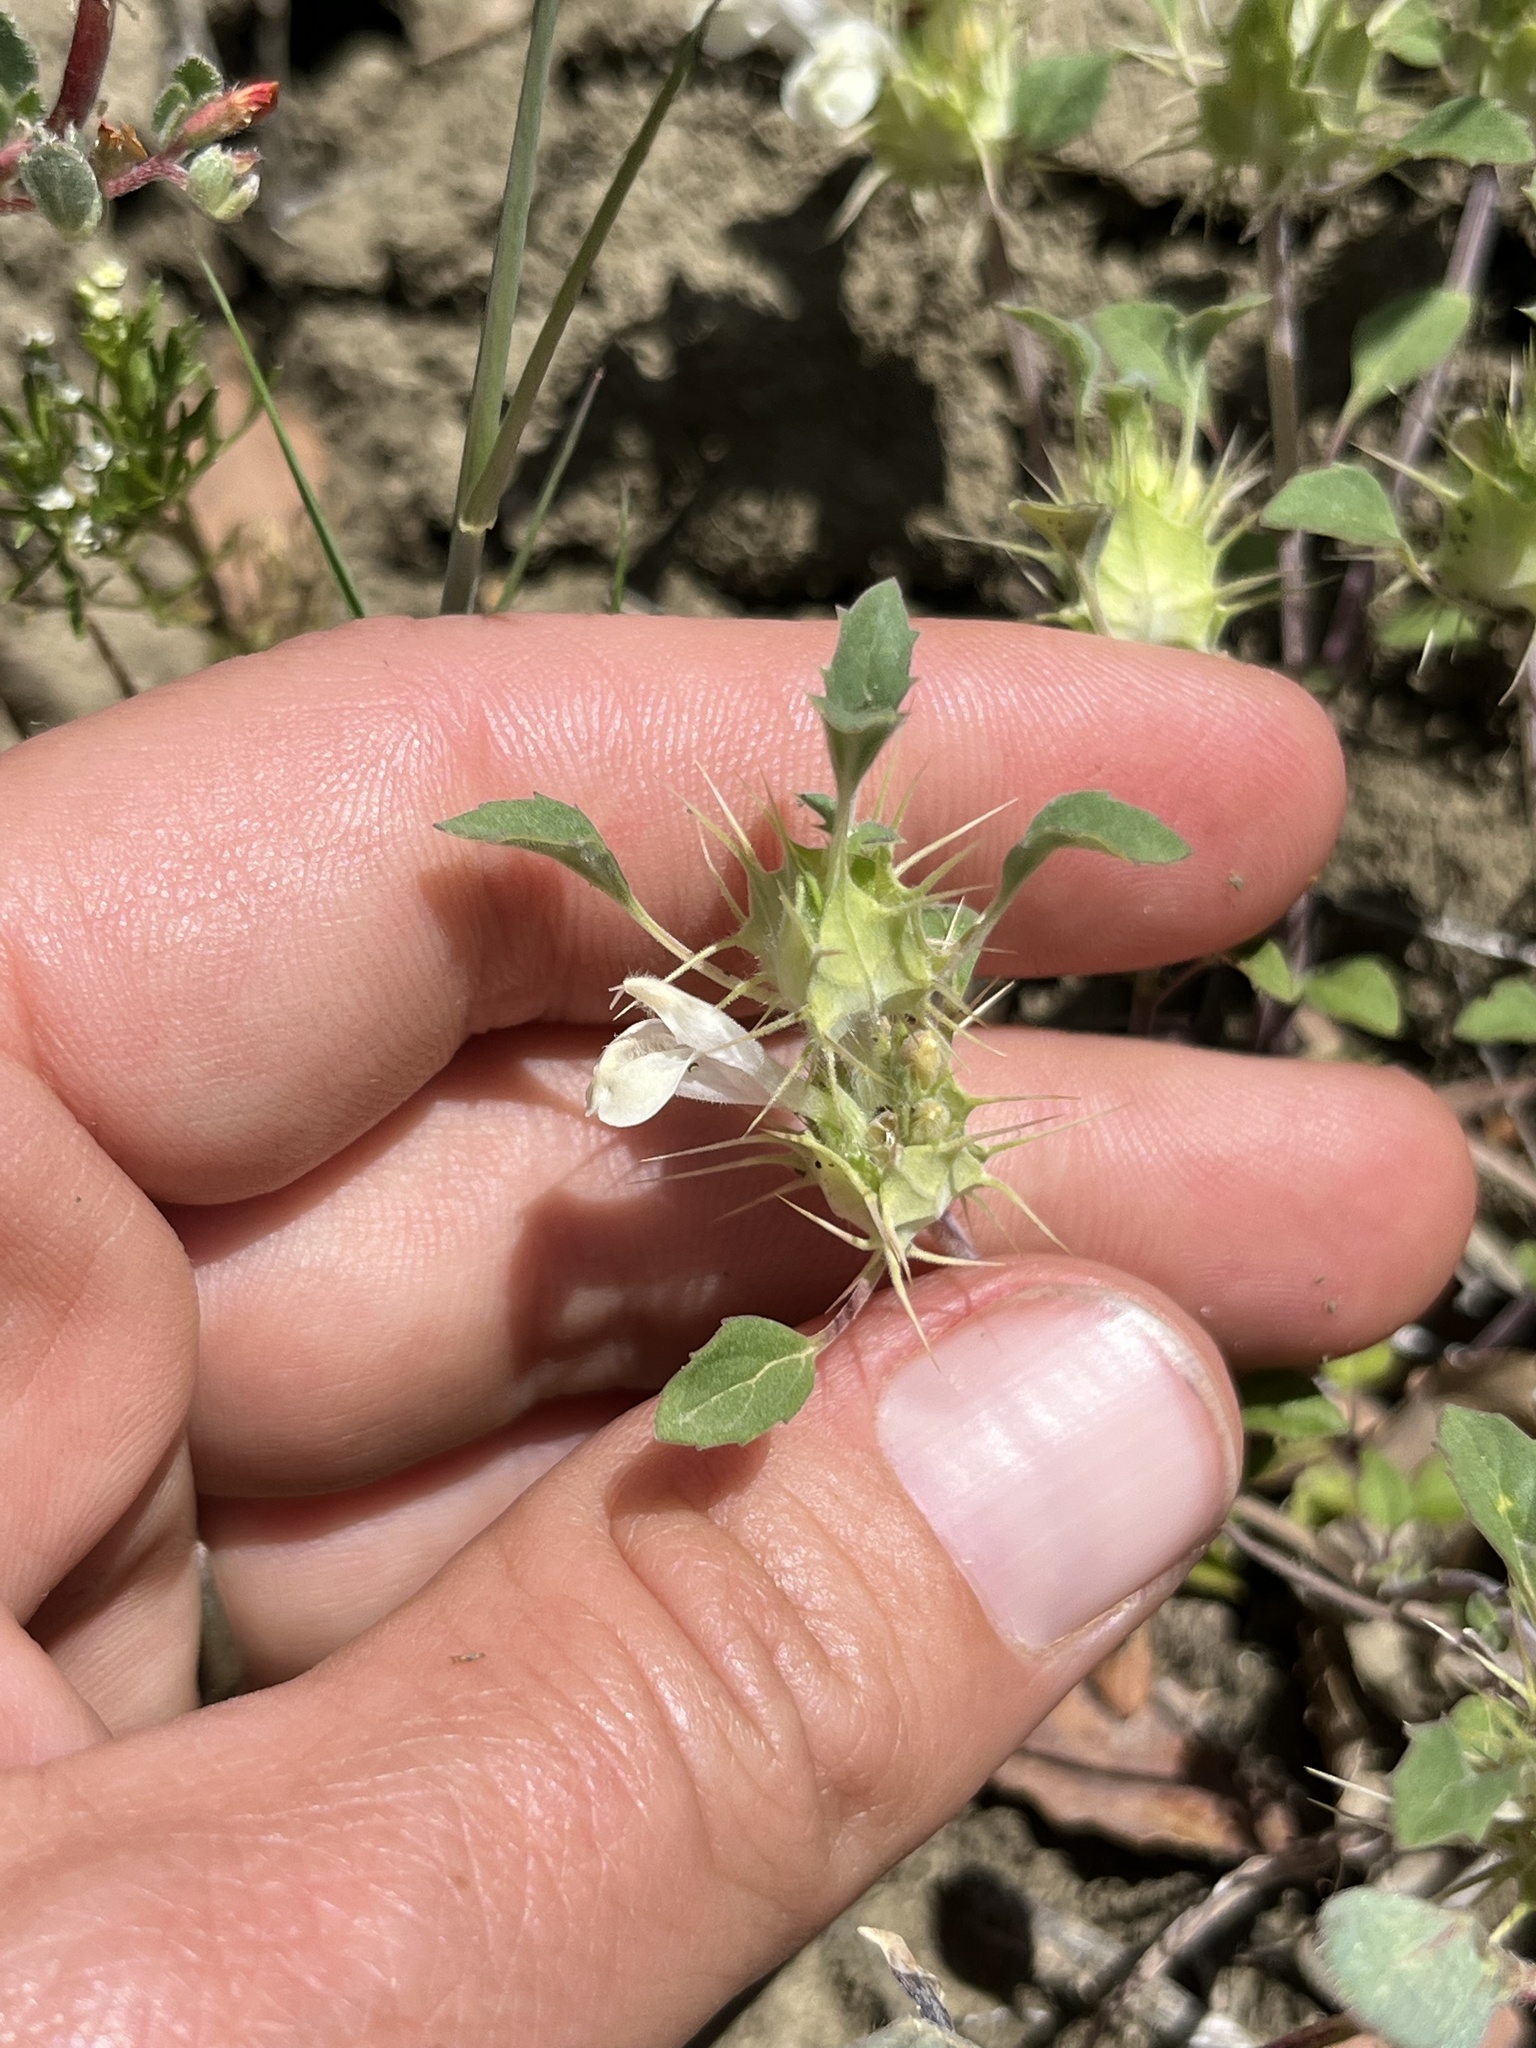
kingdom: Plantae
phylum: Tracheophyta
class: Magnoliopsida
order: Lamiales
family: Lamiaceae
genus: Acanthomintha
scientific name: Acanthomintha lanceolata
